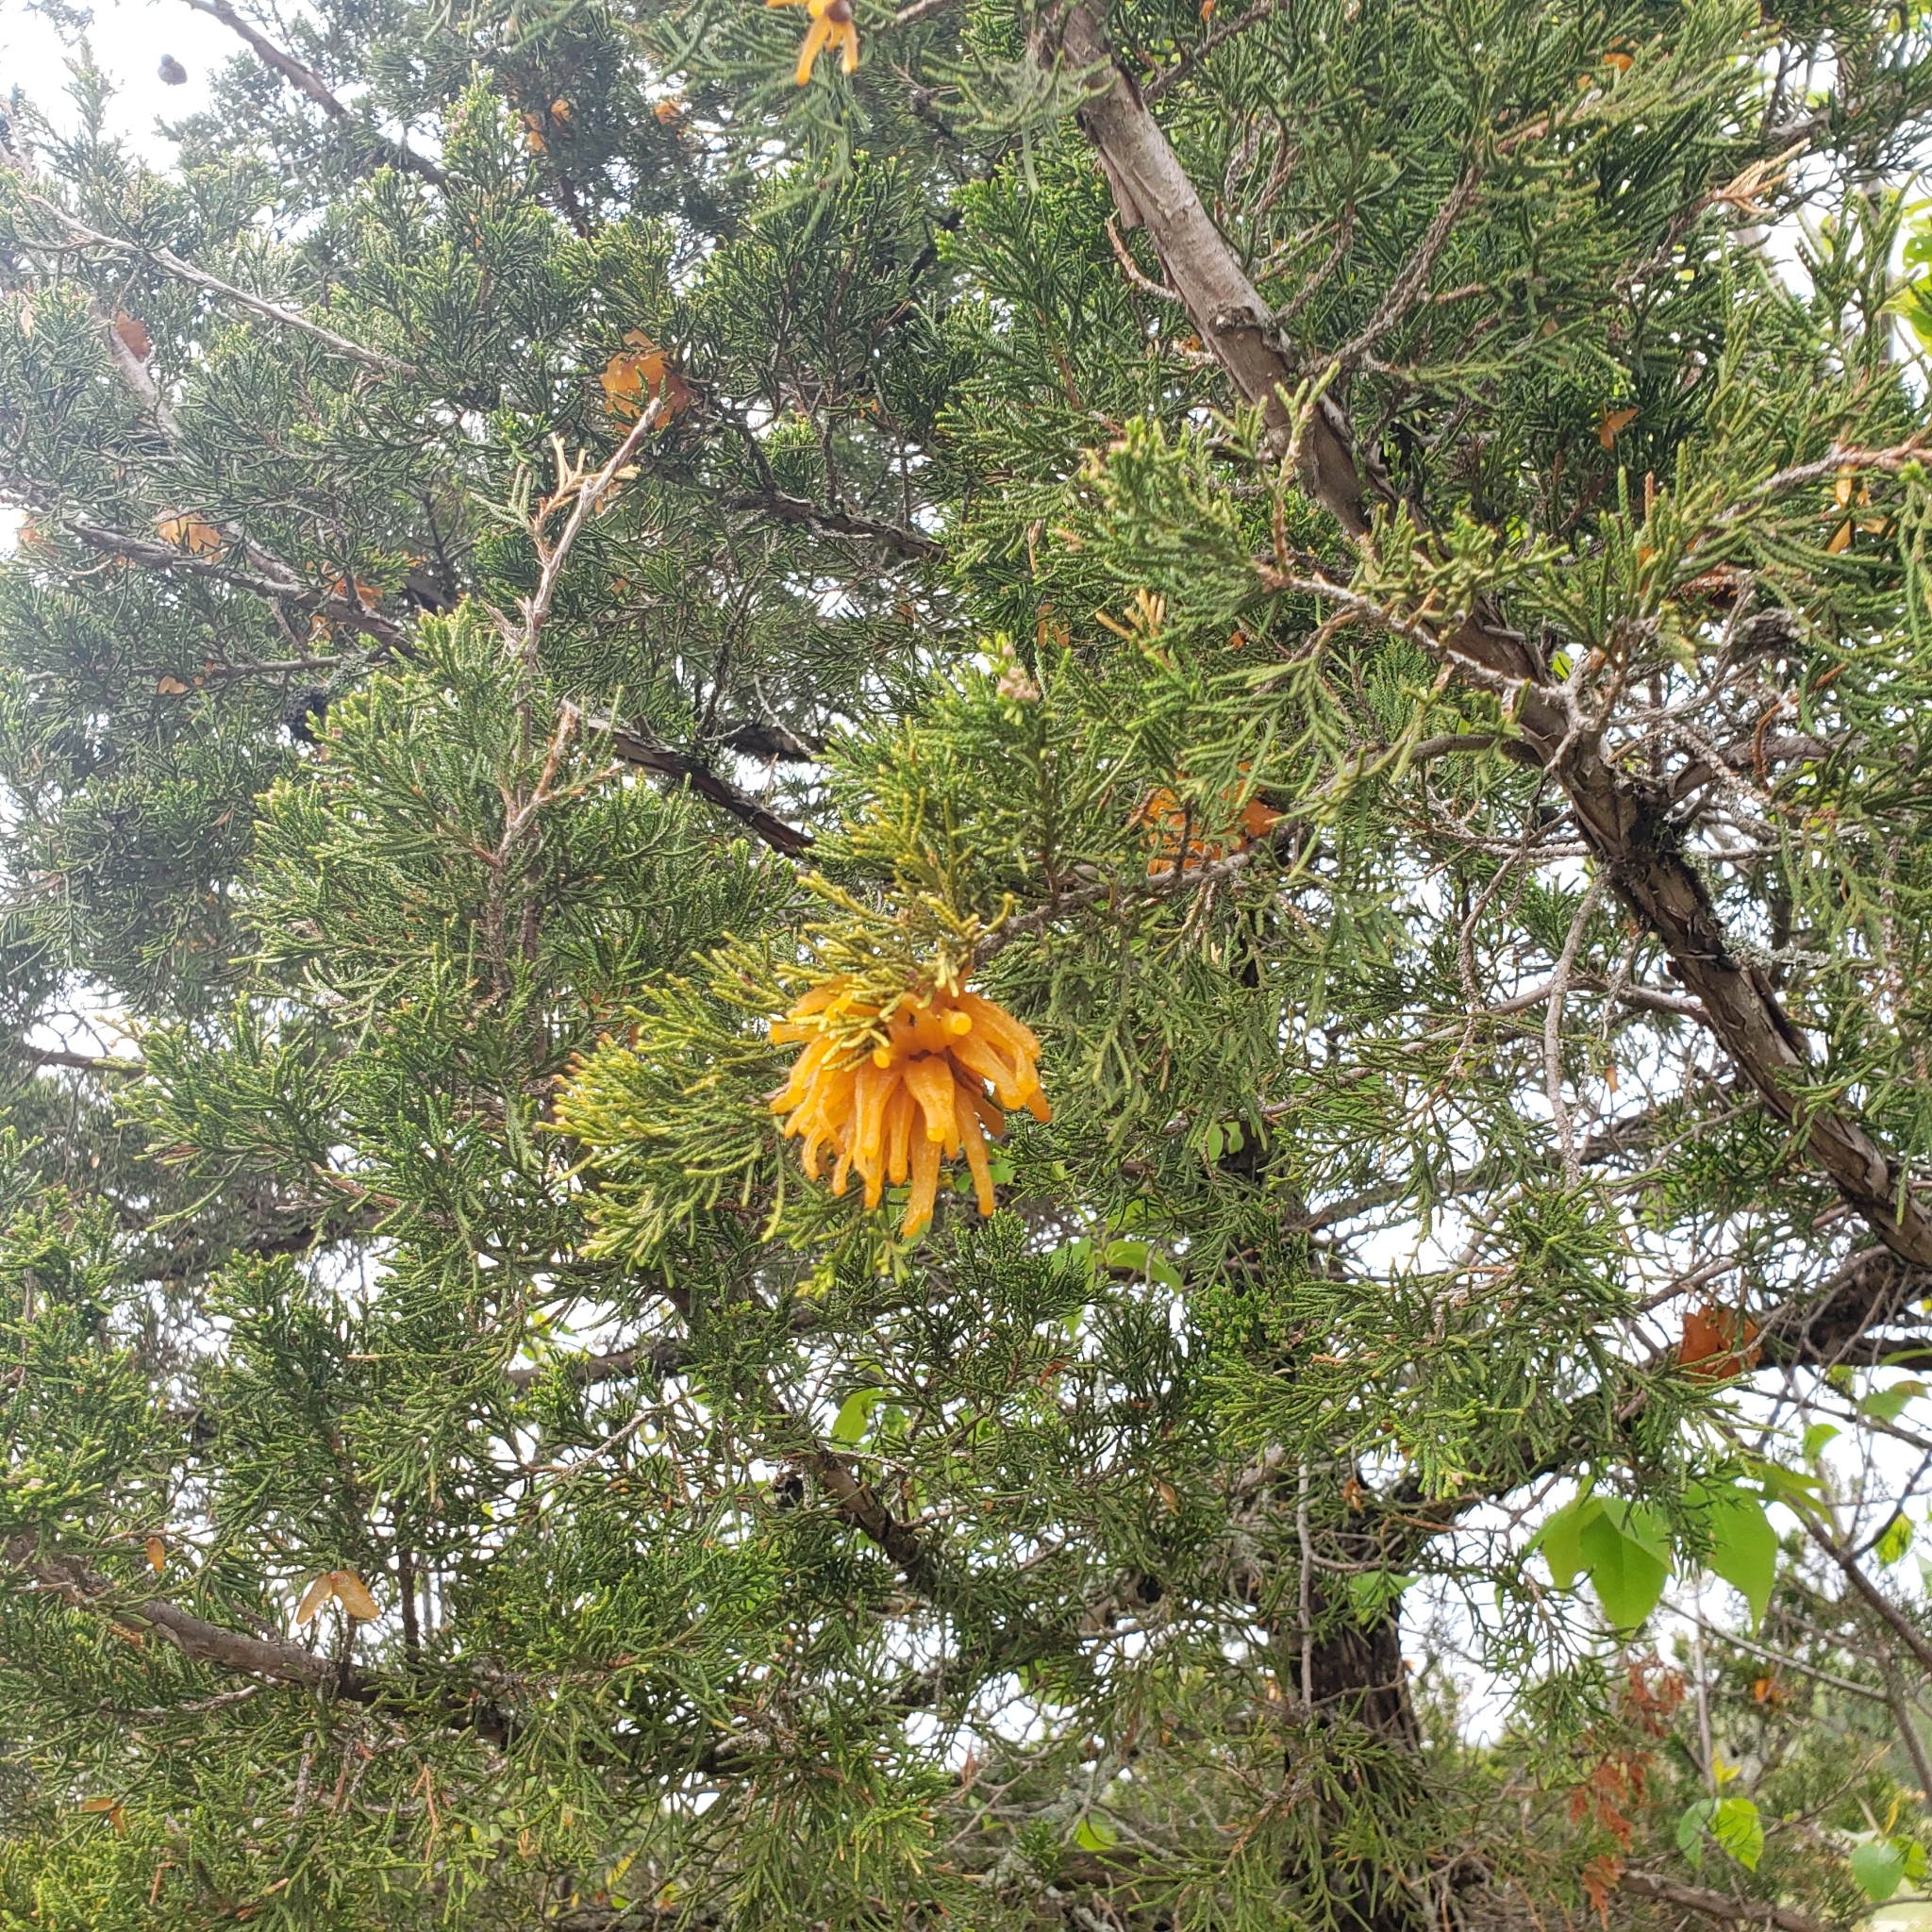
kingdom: Fungi
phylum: Basidiomycota
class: Pucciniomycetes
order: Pucciniales
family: Gymnosporangiaceae
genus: Gymnosporangium
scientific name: Gymnosporangium juniperi-virginianae
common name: Juniper-apple rust
